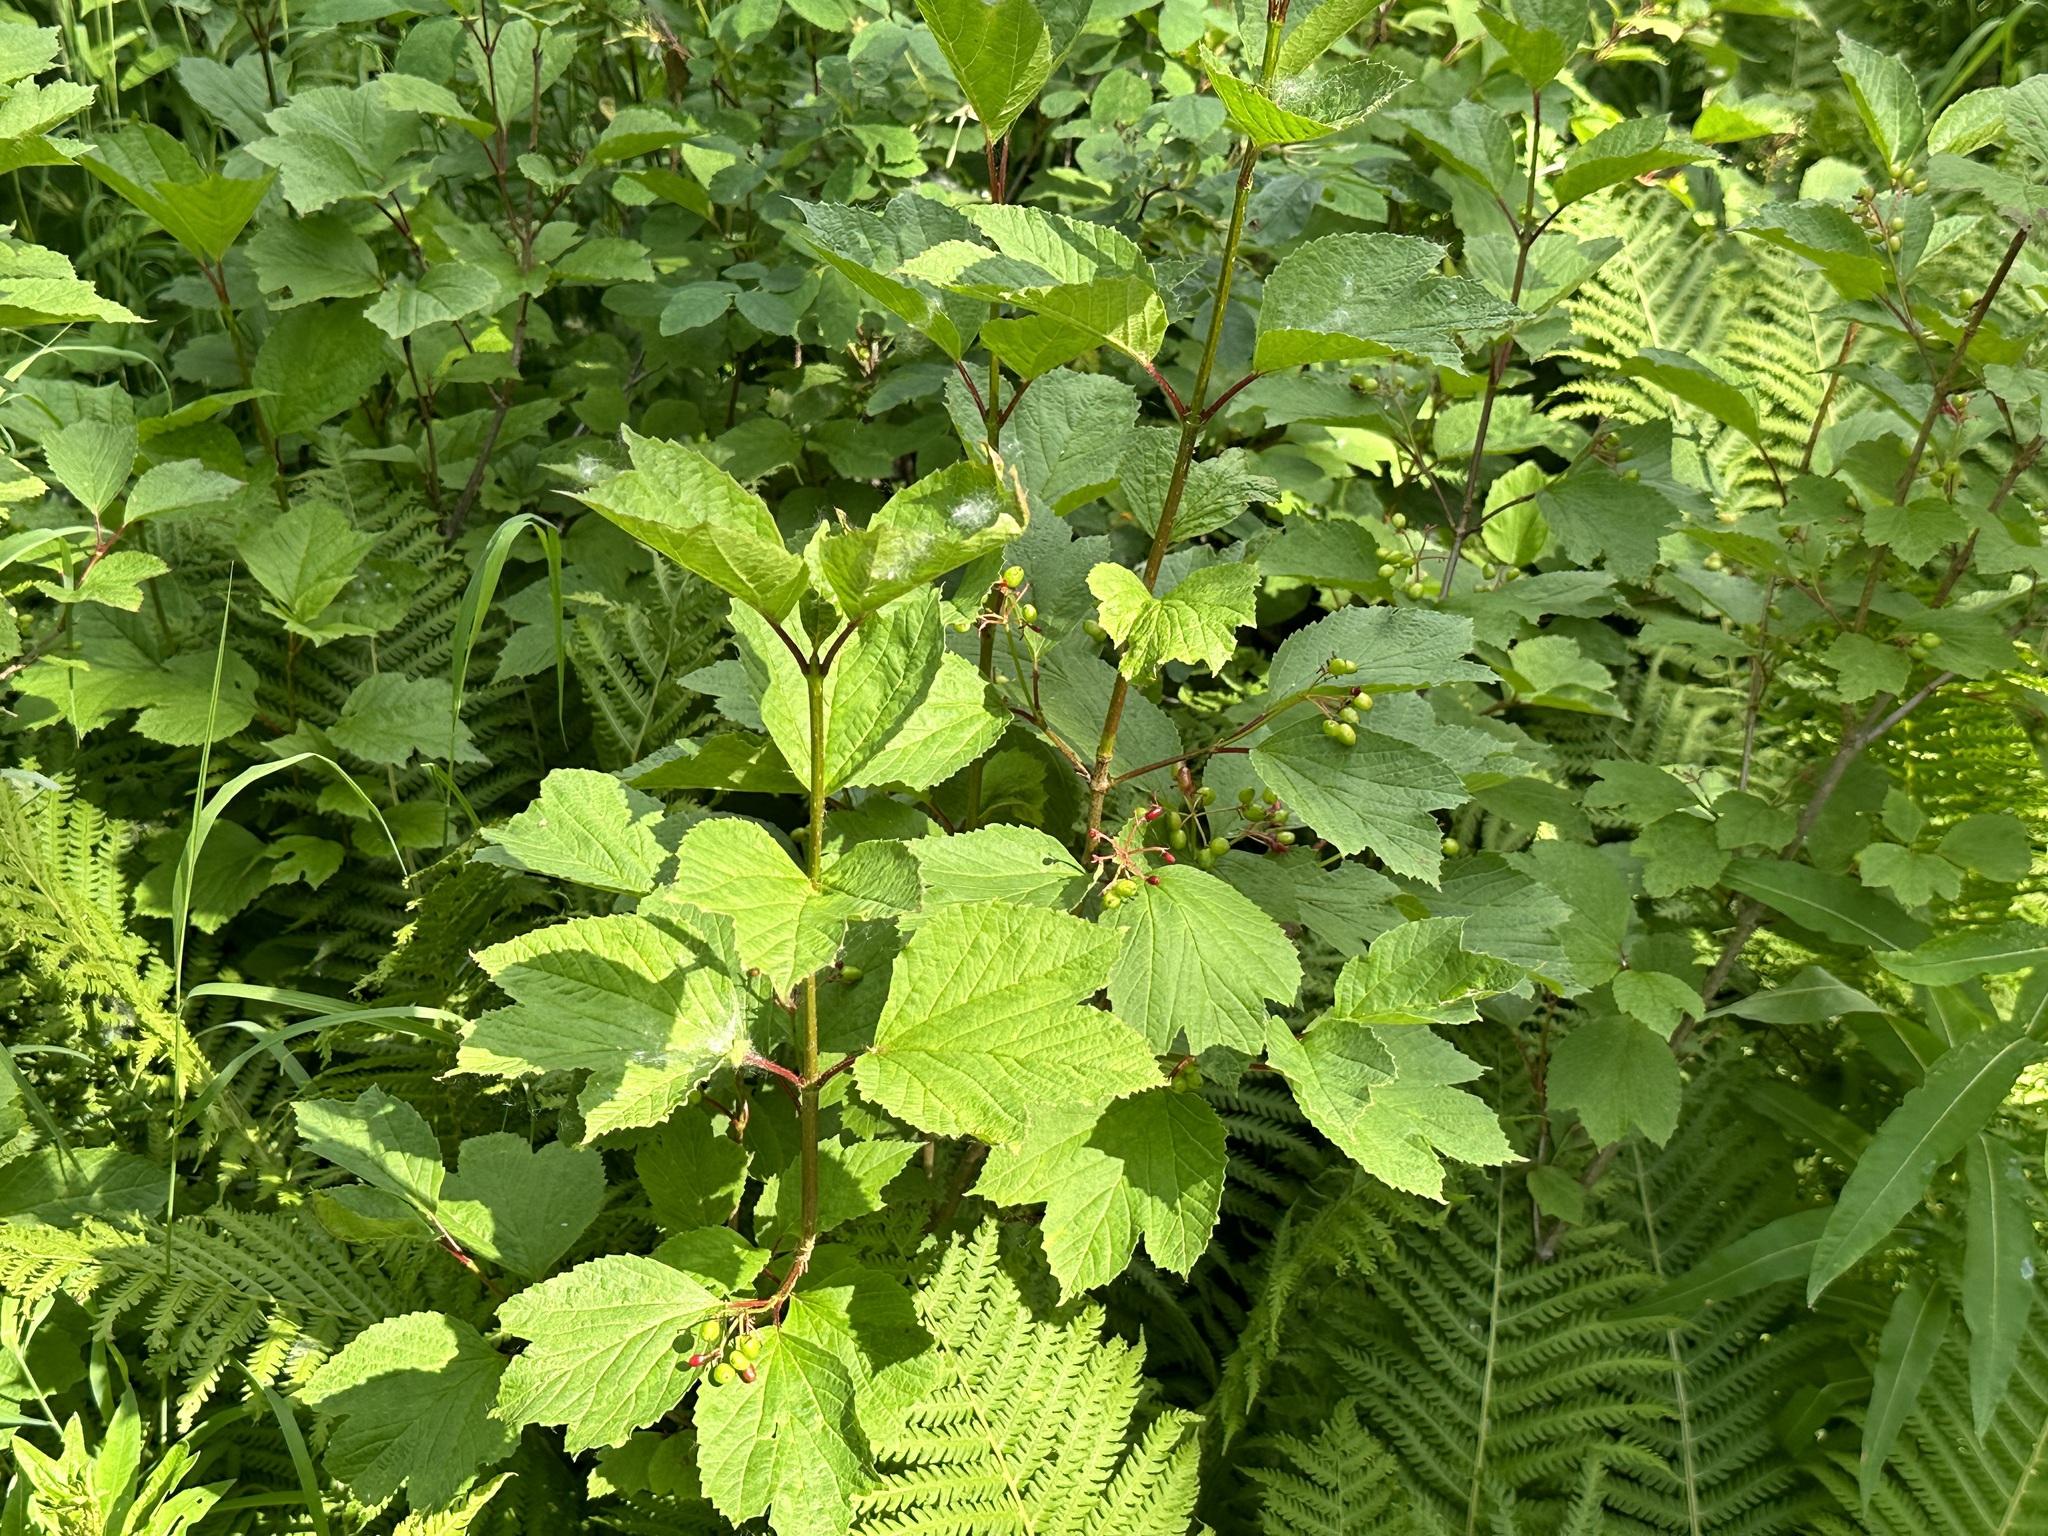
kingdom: Plantae
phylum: Tracheophyta
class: Magnoliopsida
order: Dipsacales
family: Viburnaceae
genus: Viburnum
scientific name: Viburnum edule
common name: Mooseberry
